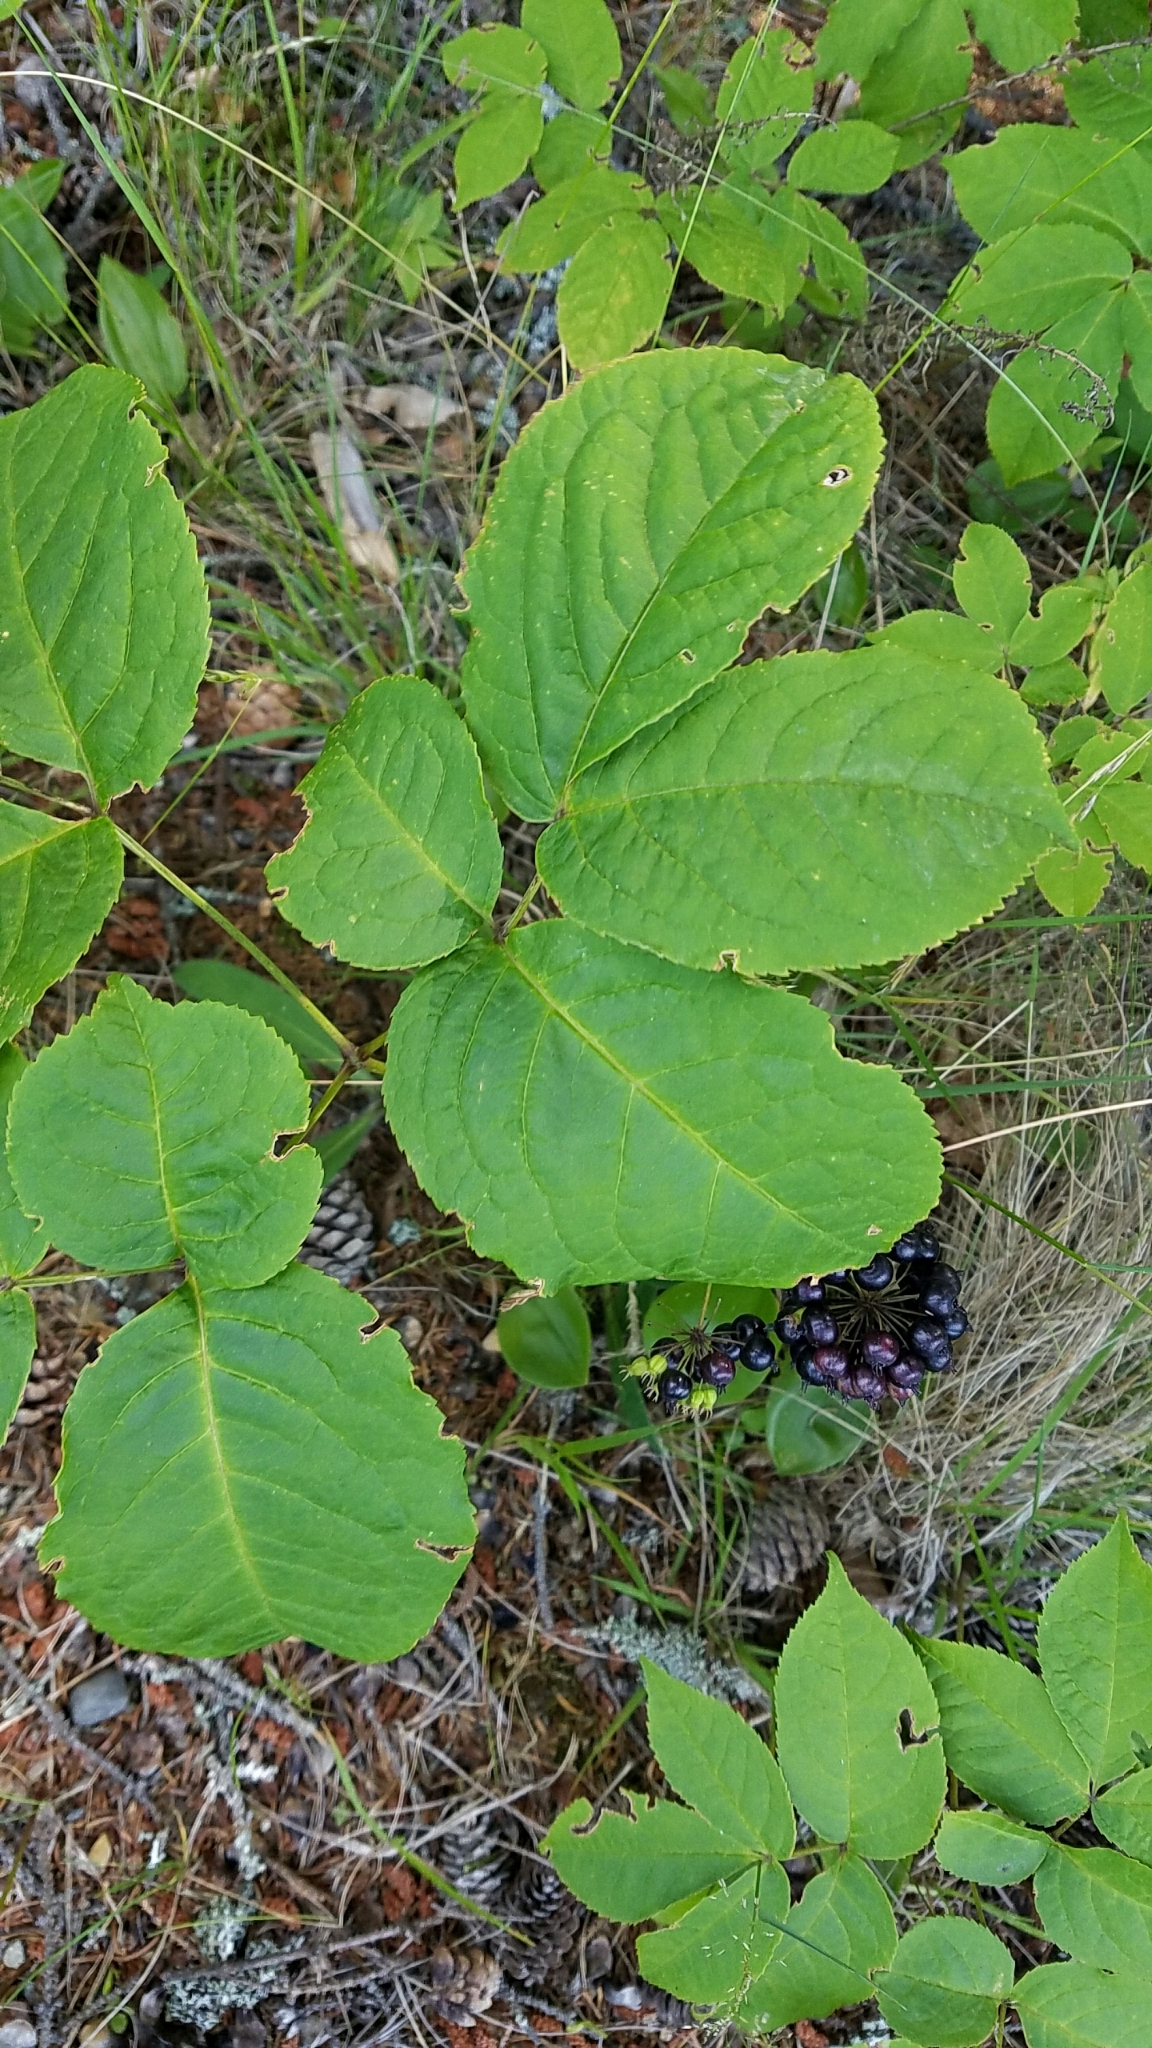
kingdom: Plantae
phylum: Tracheophyta
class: Magnoliopsida
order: Apiales
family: Araliaceae
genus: Aralia
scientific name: Aralia nudicaulis
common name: Wild sarsaparilla
